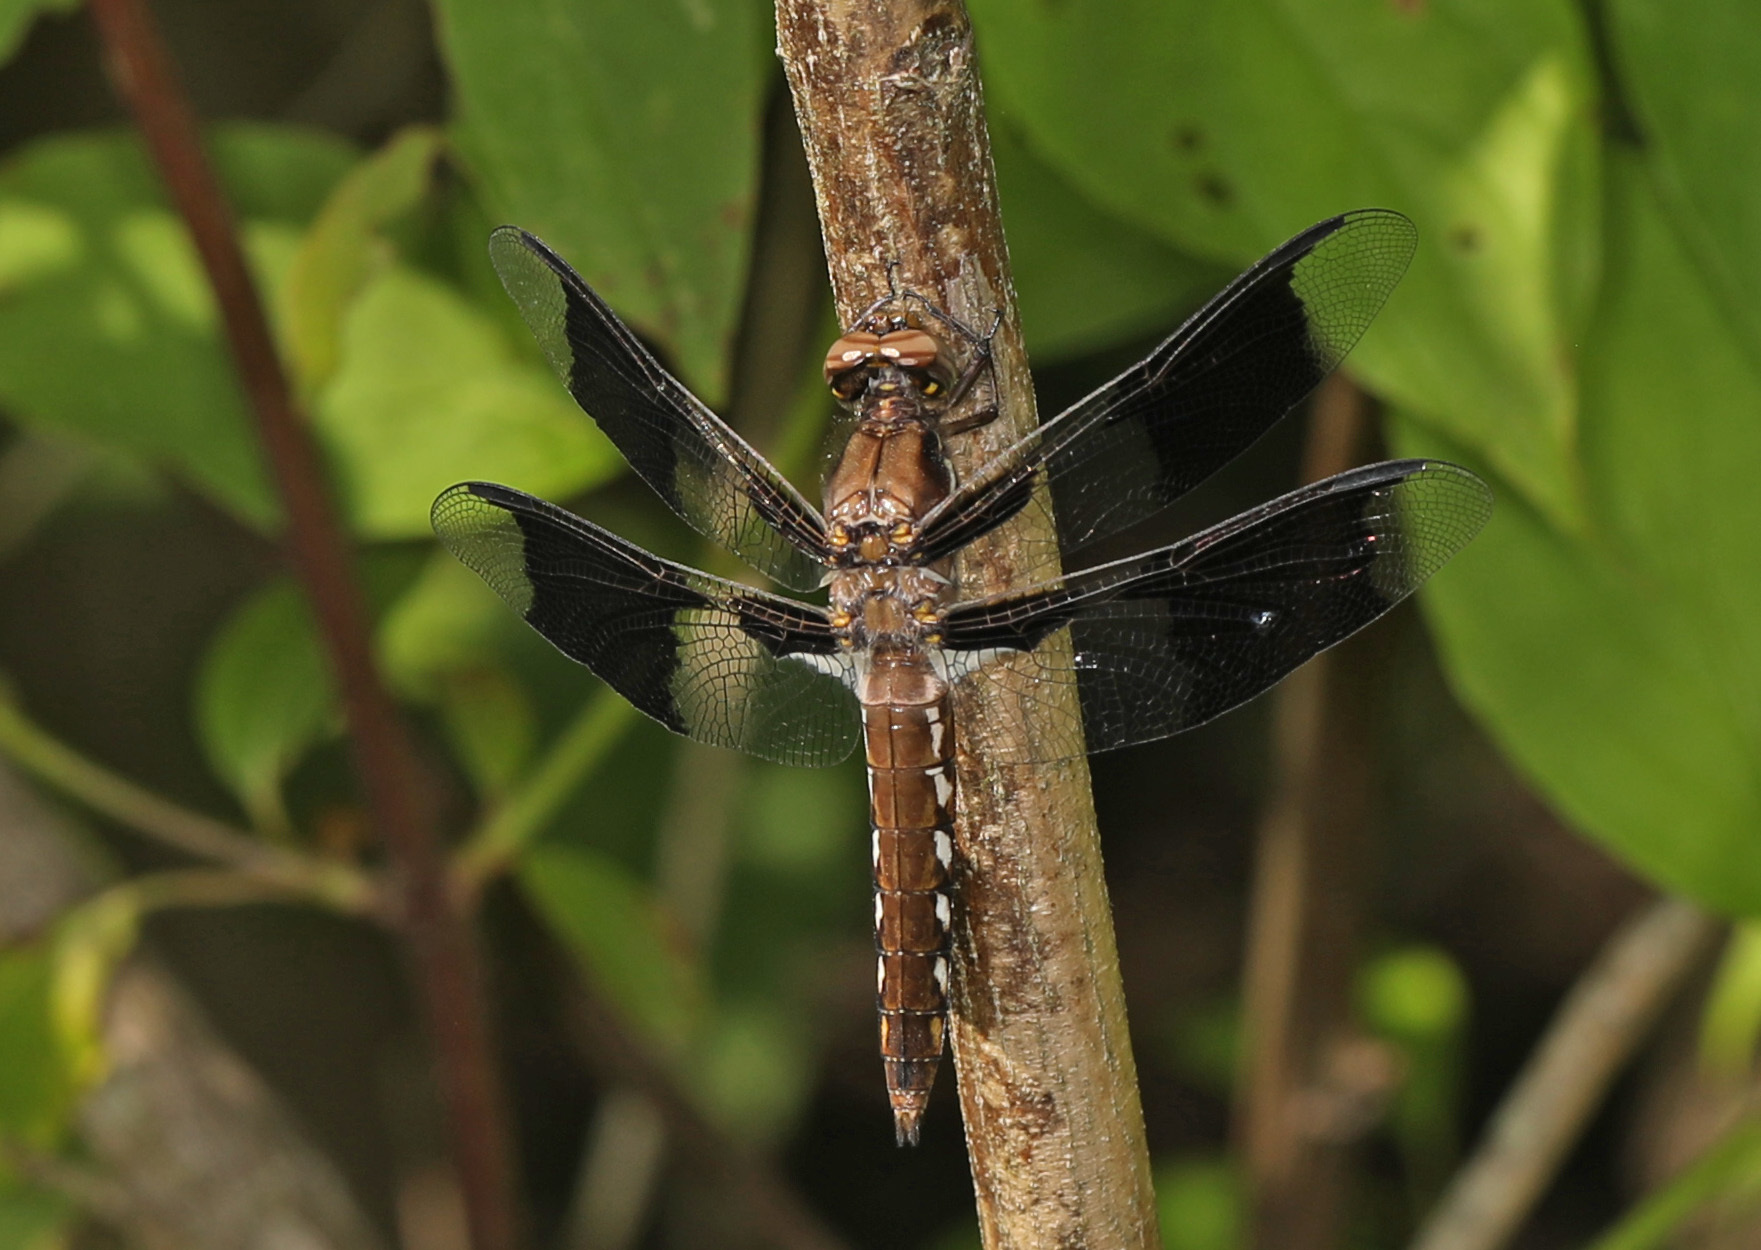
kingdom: Animalia
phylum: Arthropoda
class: Insecta
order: Odonata
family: Libellulidae
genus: Plathemis
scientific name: Plathemis lydia
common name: Common whitetail
